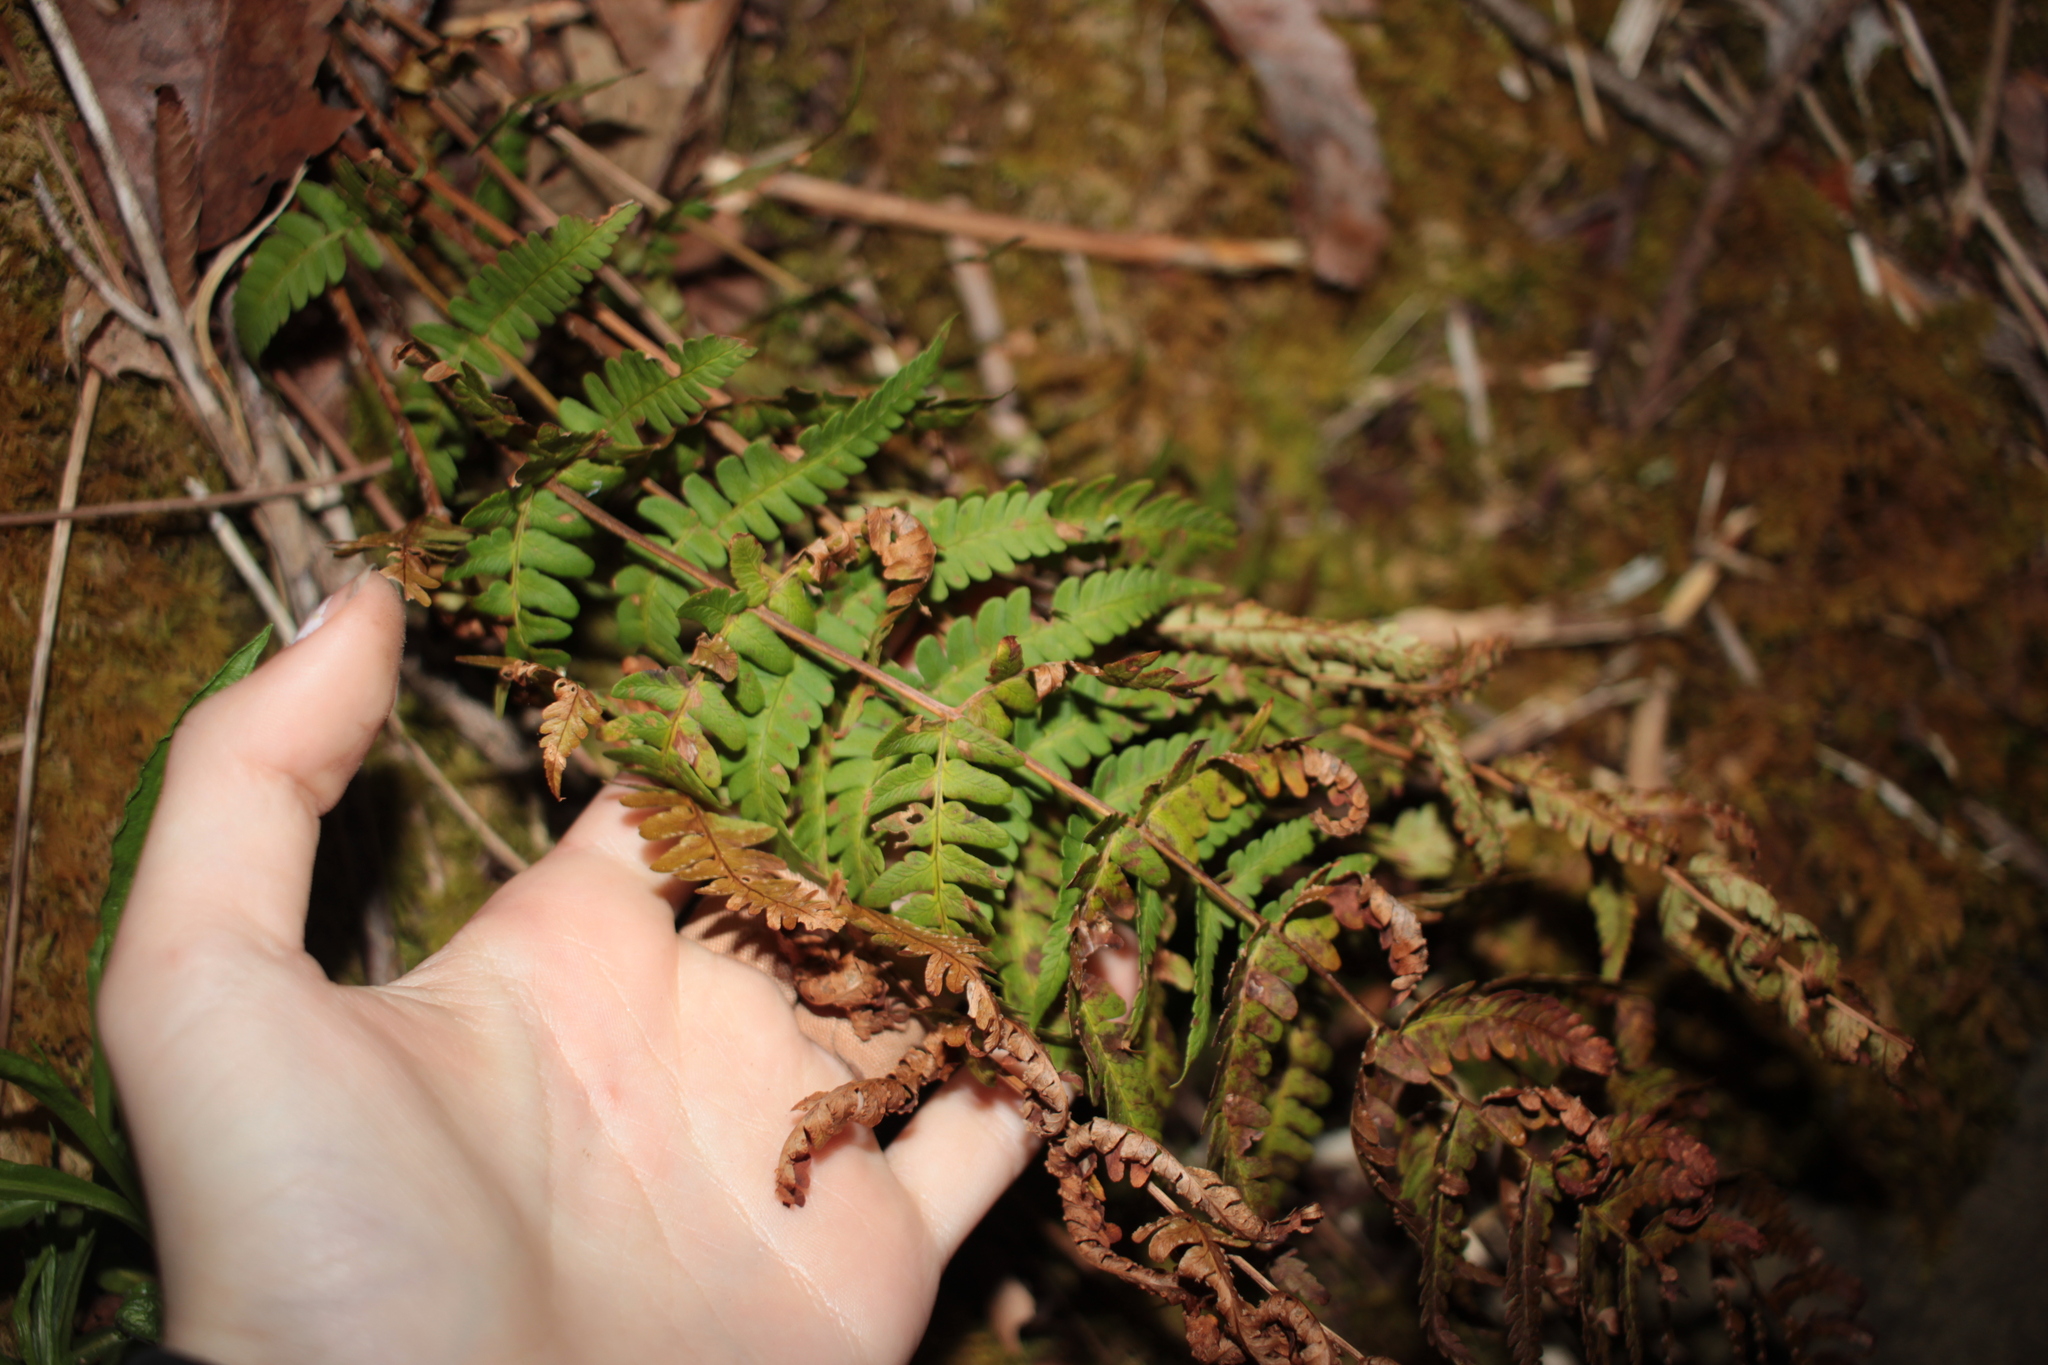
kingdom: Plantae
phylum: Tracheophyta
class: Polypodiopsida
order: Polypodiales
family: Dryopteridaceae
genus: Dryopteris
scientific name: Dryopteris marginalis
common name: Marginal wood fern
